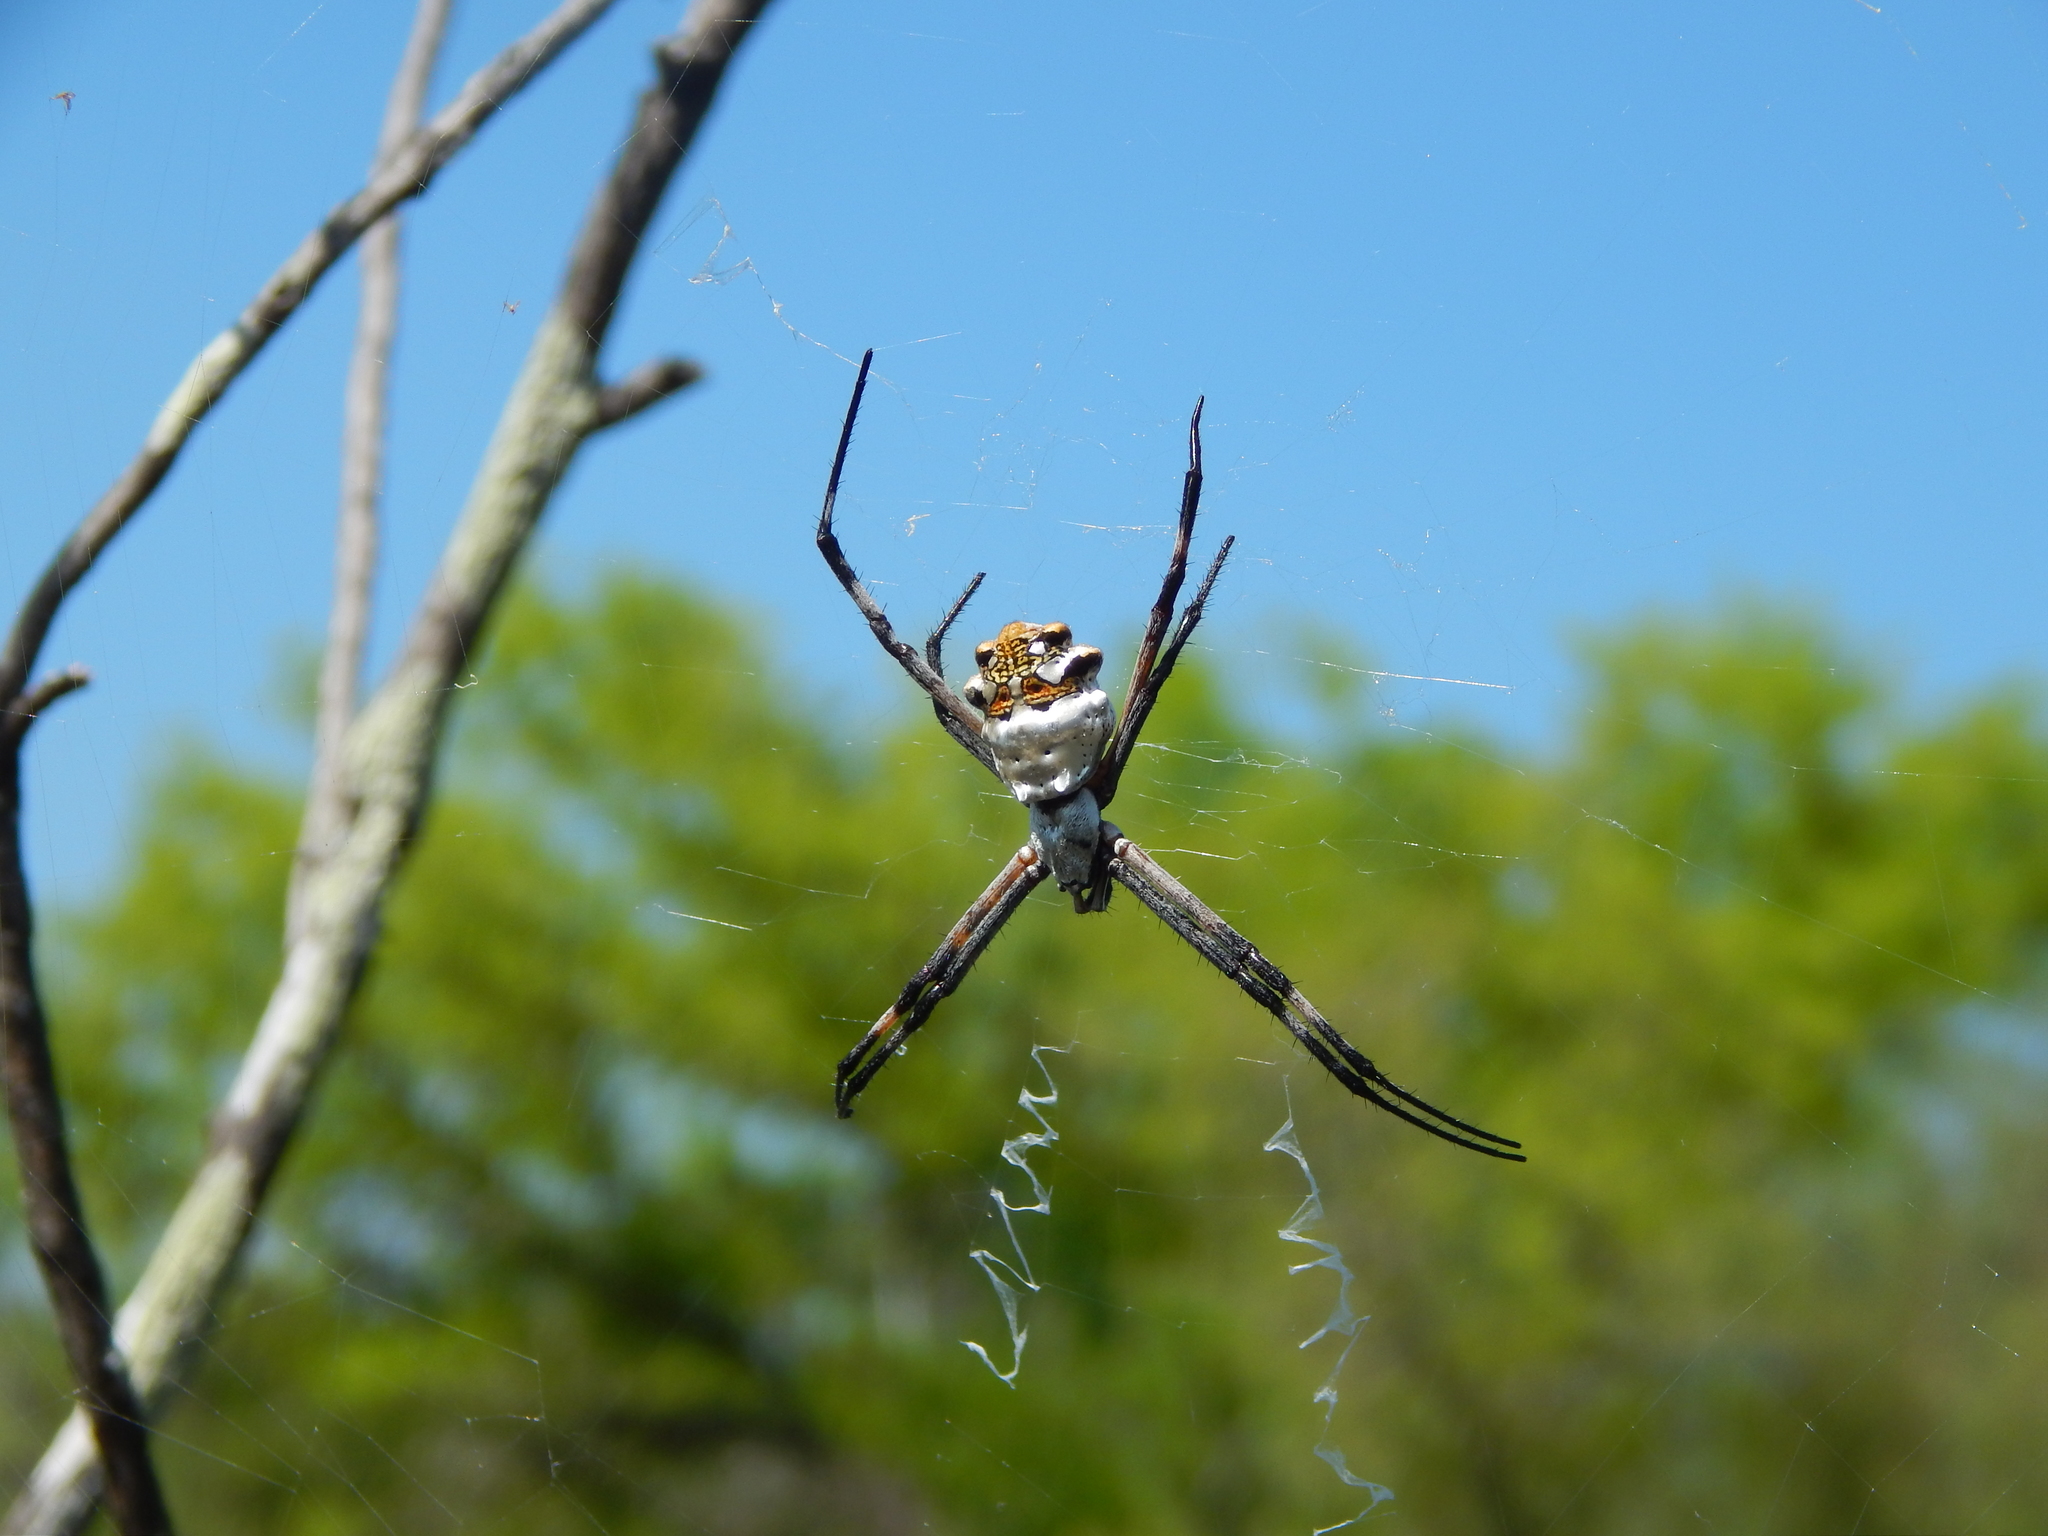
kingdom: Animalia
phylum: Arthropoda
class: Arachnida
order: Araneae
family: Araneidae
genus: Argiope
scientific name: Argiope argentata
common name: Orb weavers
